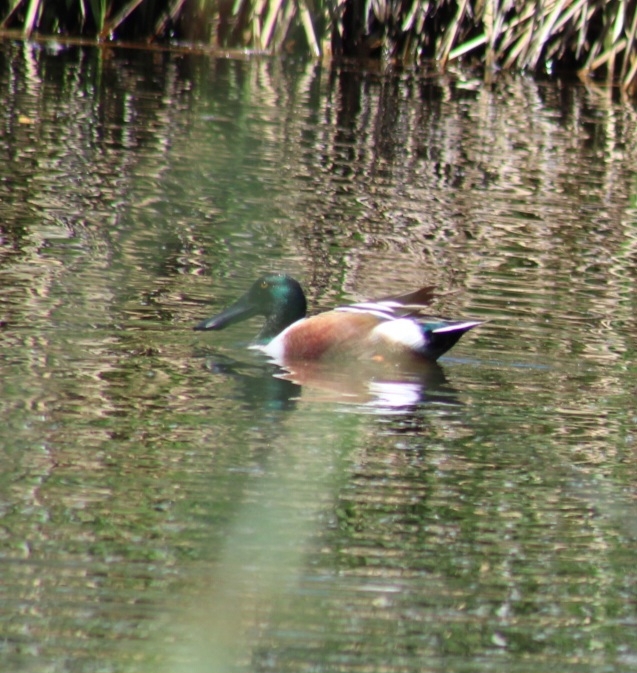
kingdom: Animalia
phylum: Chordata
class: Aves
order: Anseriformes
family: Anatidae
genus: Spatula
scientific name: Spatula clypeata
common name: Northern shoveler
